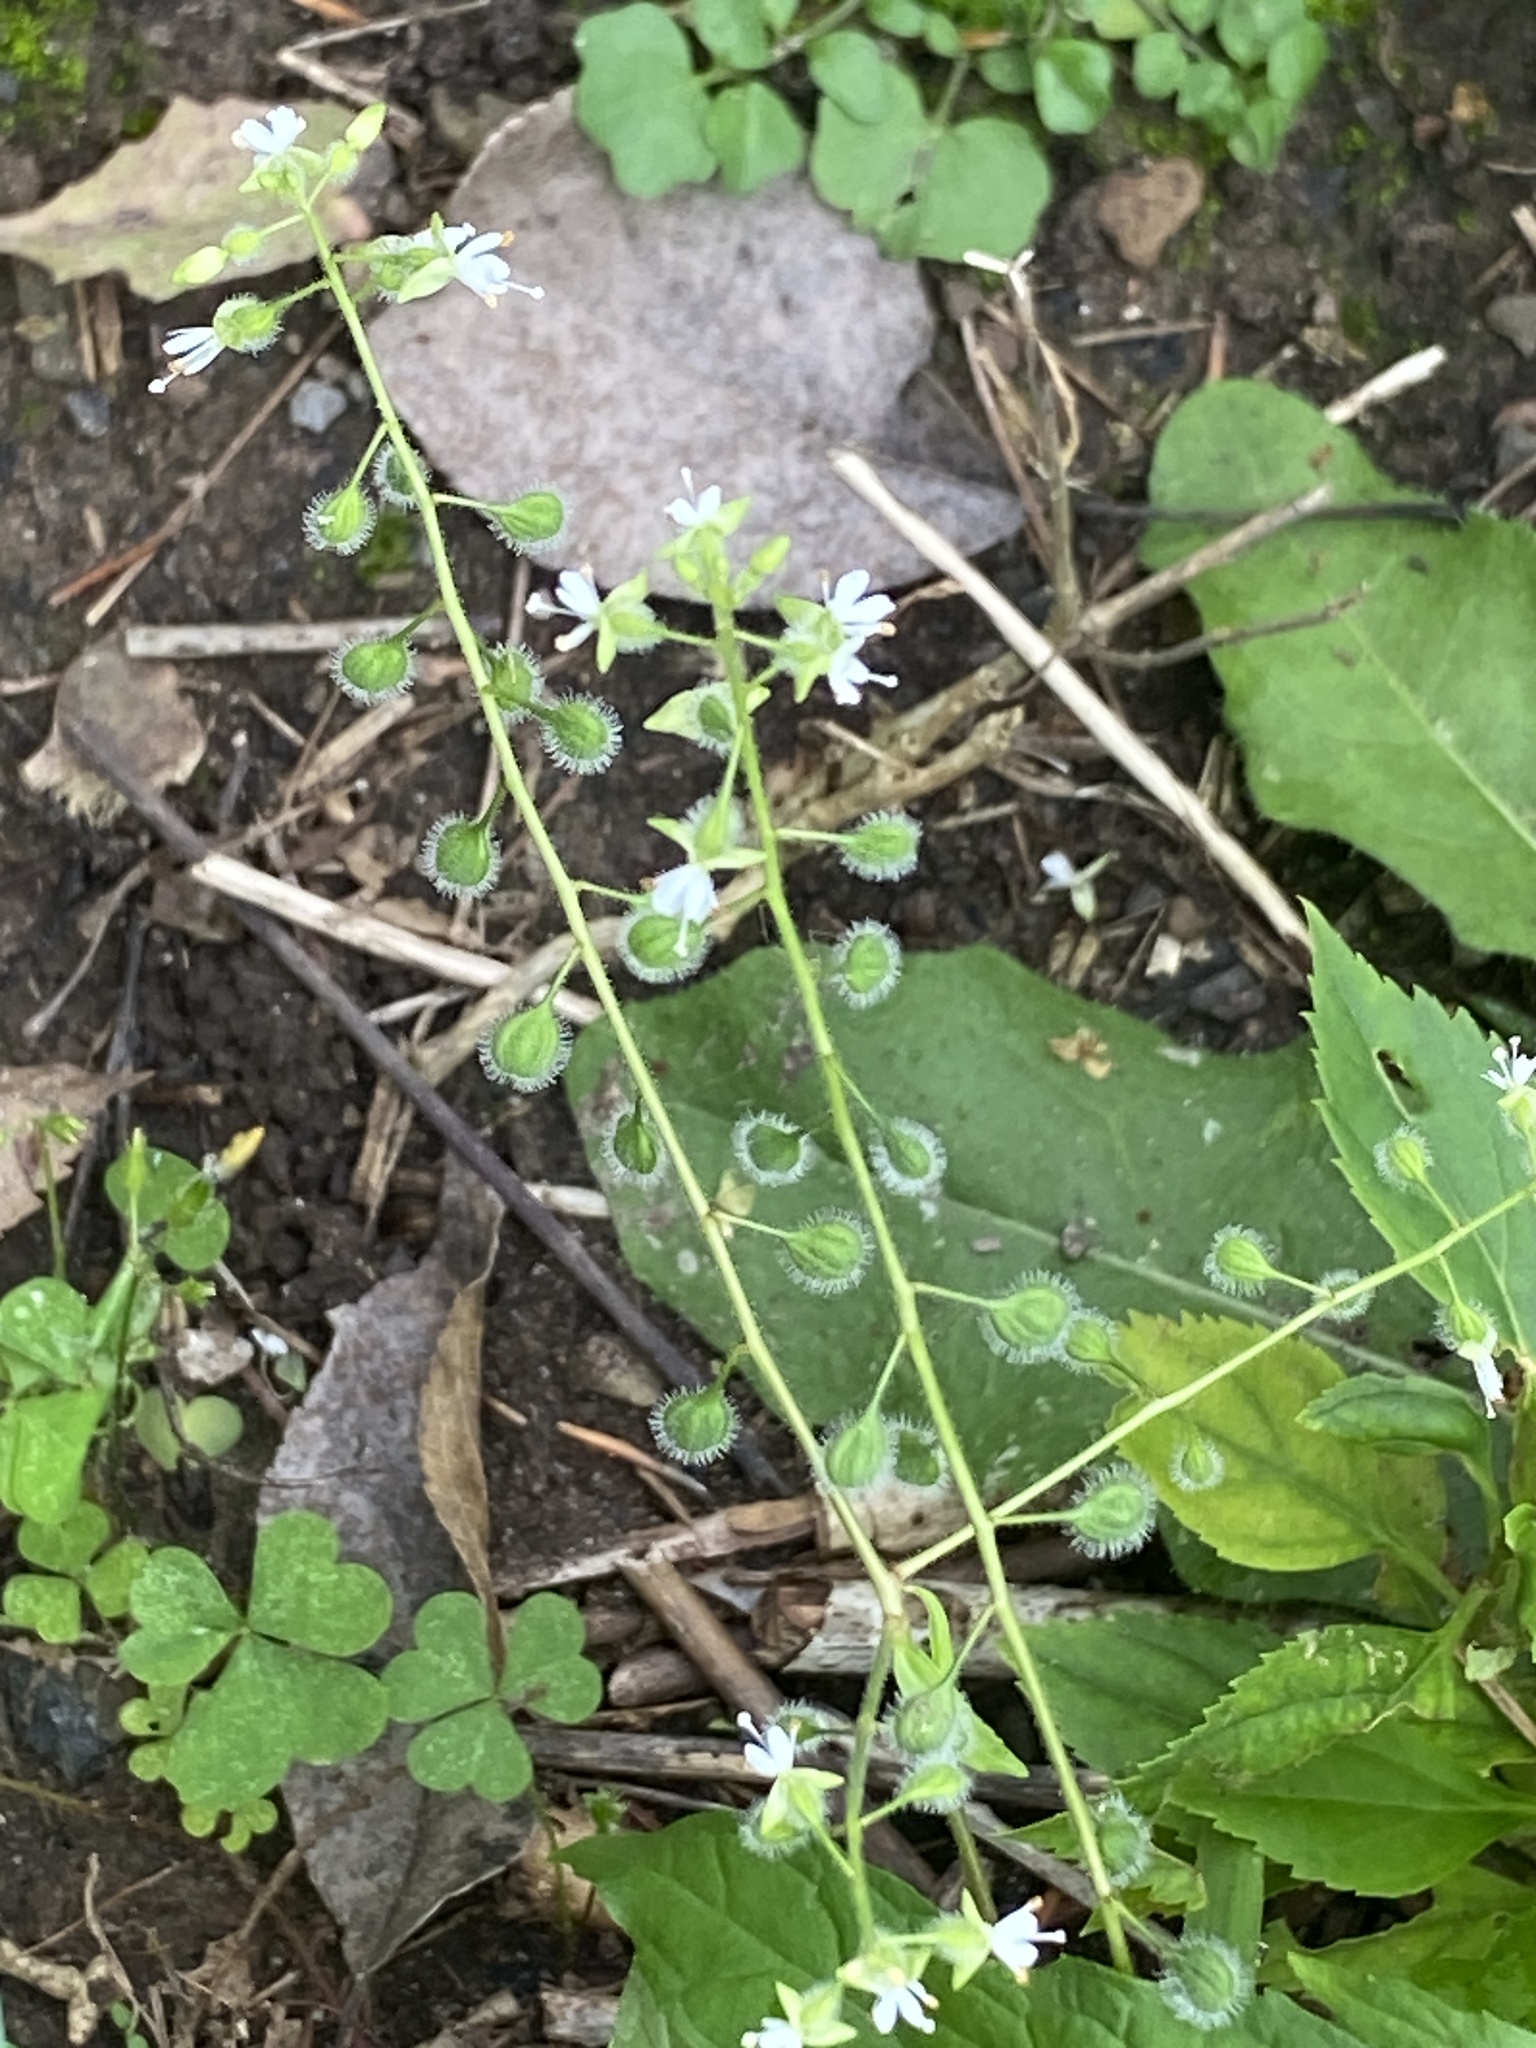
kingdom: Plantae
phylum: Tracheophyta
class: Magnoliopsida
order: Myrtales
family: Onagraceae
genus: Circaea
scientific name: Circaea canadensis
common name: Broad-leaved enchanter's nightshade
